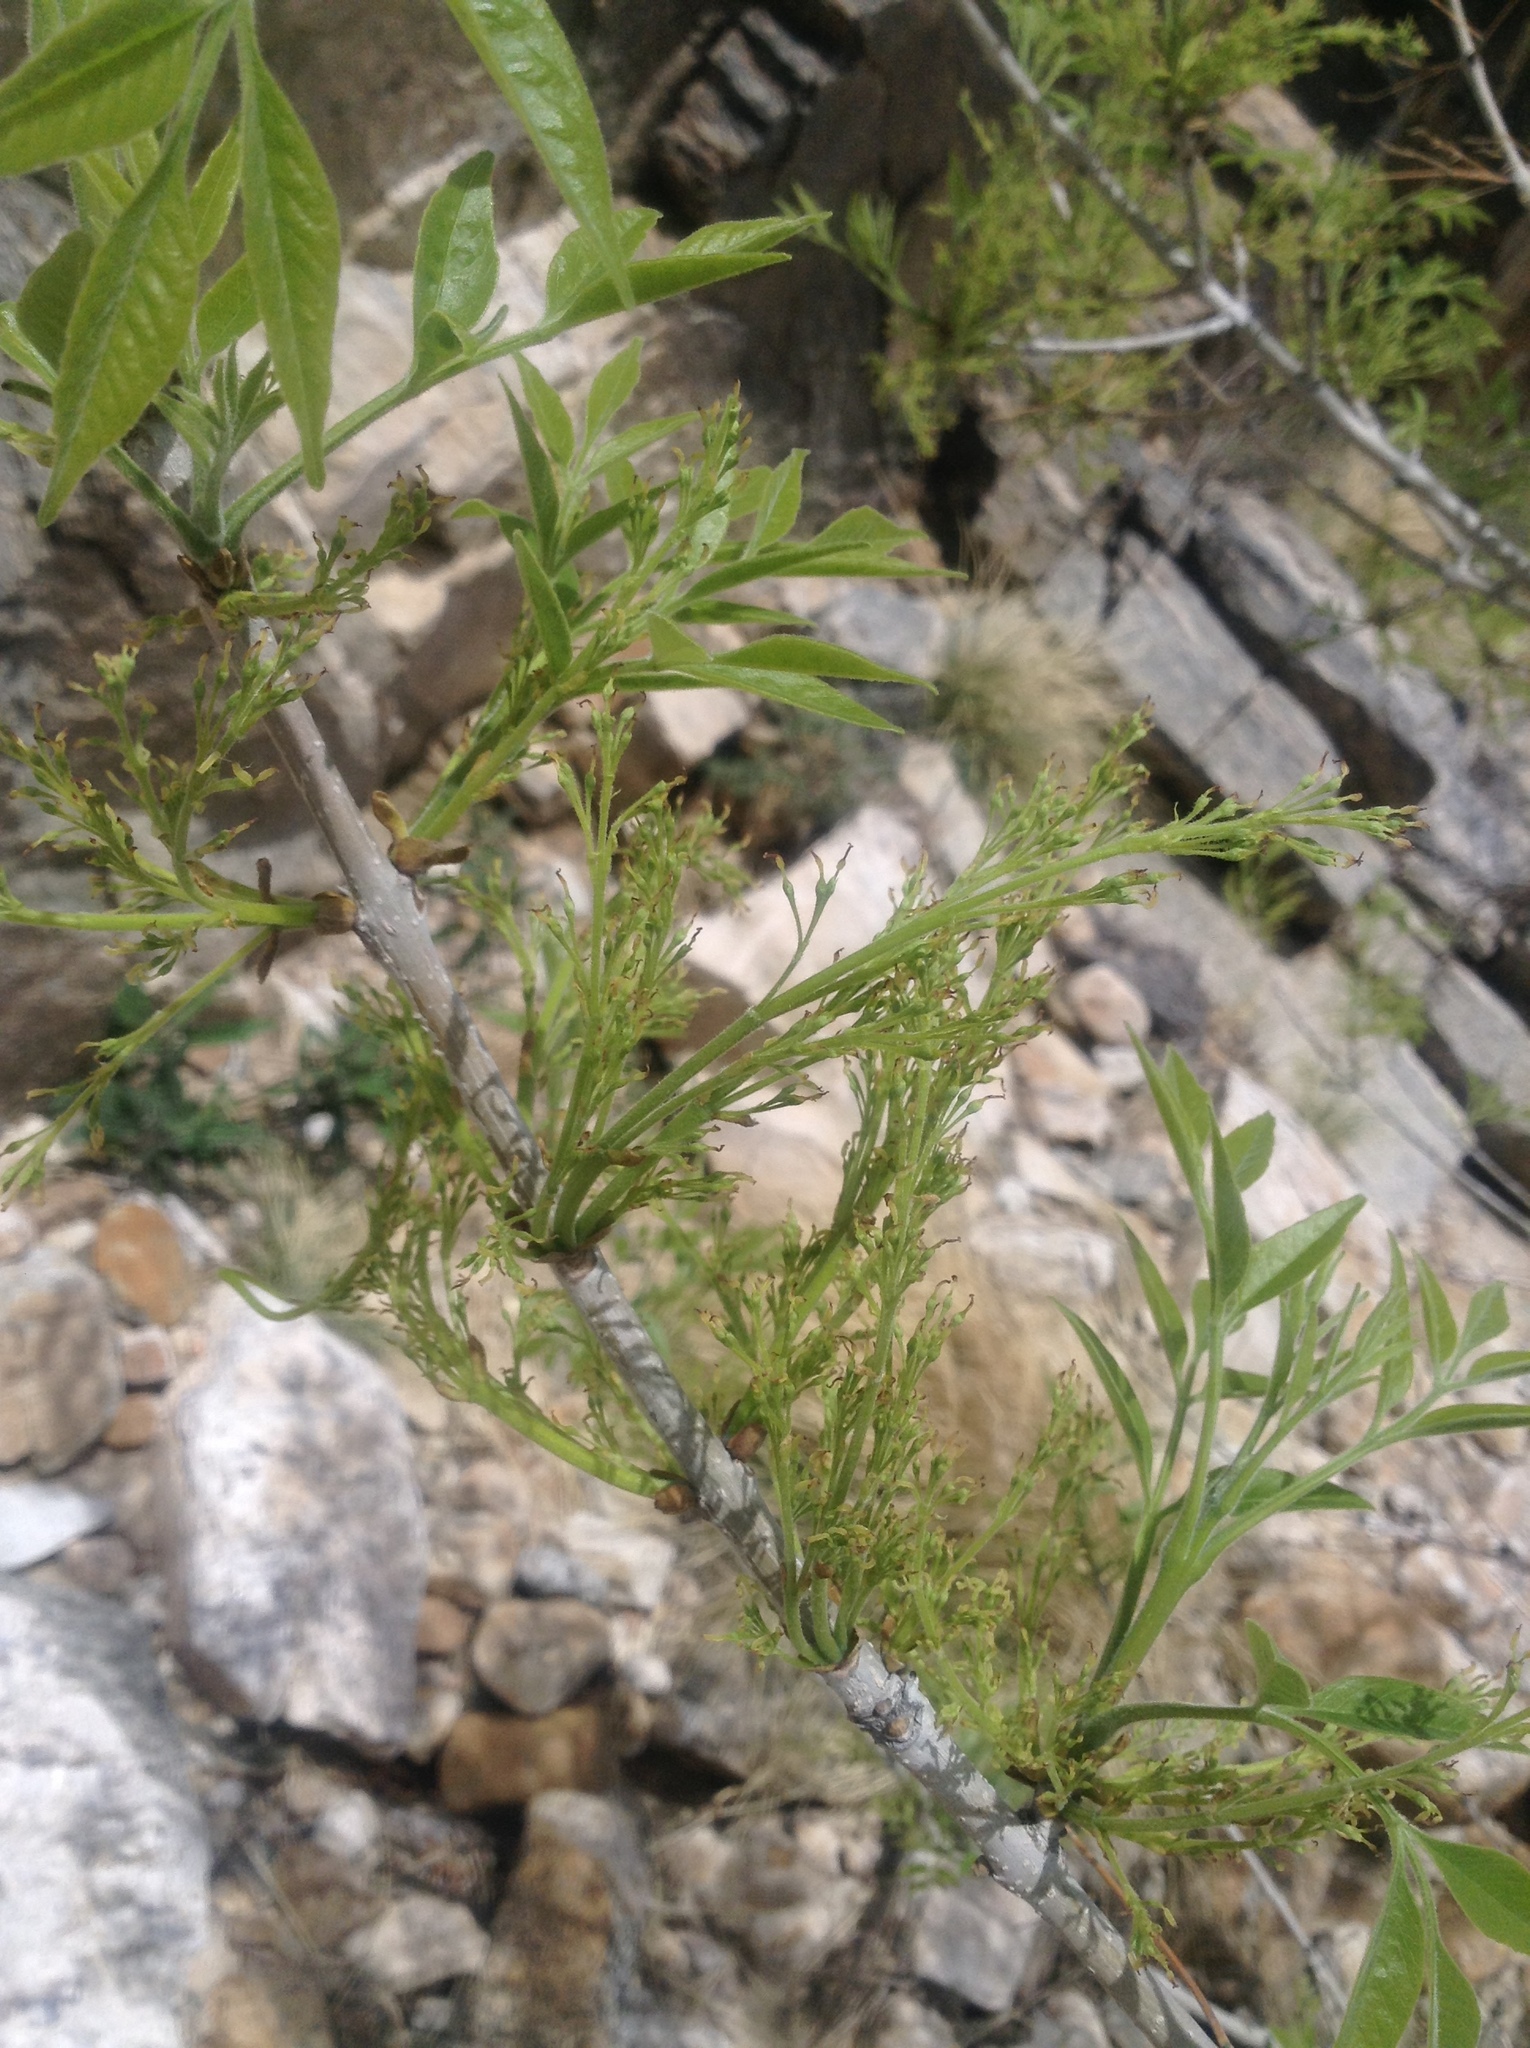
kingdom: Plantae
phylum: Tracheophyta
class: Magnoliopsida
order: Lamiales
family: Oleaceae
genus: Fraxinus
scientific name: Fraxinus velutina
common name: Arizon ash
